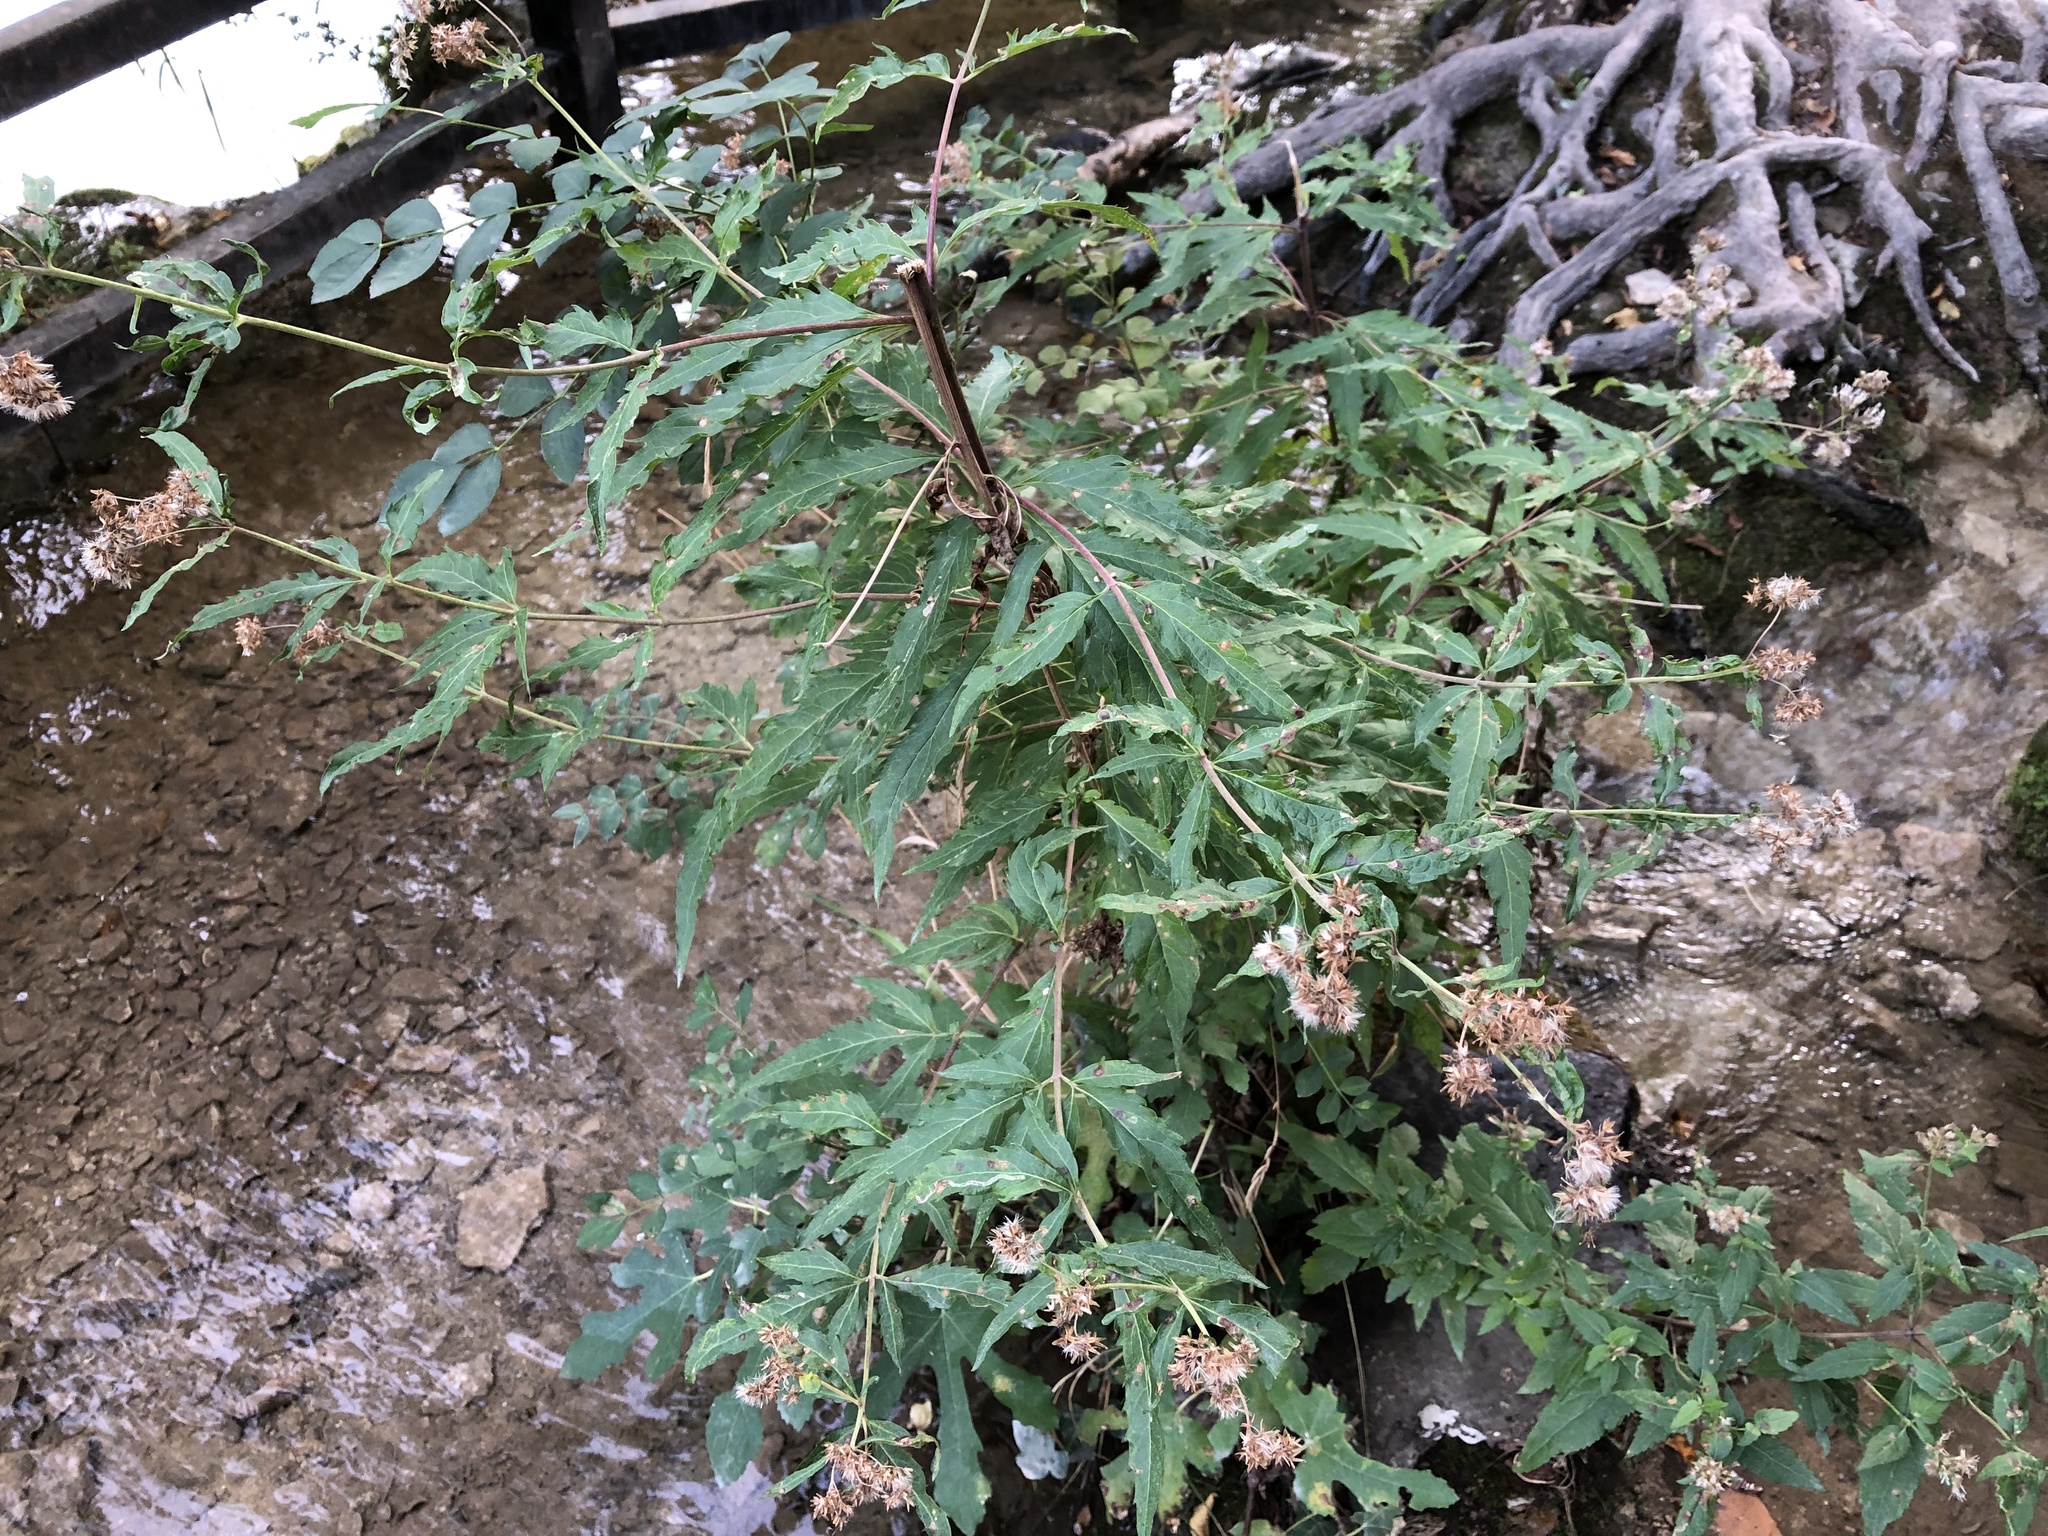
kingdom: Plantae
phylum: Tracheophyta
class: Magnoliopsida
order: Asterales
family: Asteraceae
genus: Eupatorium
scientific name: Eupatorium cannabinum
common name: Hemp-agrimony
